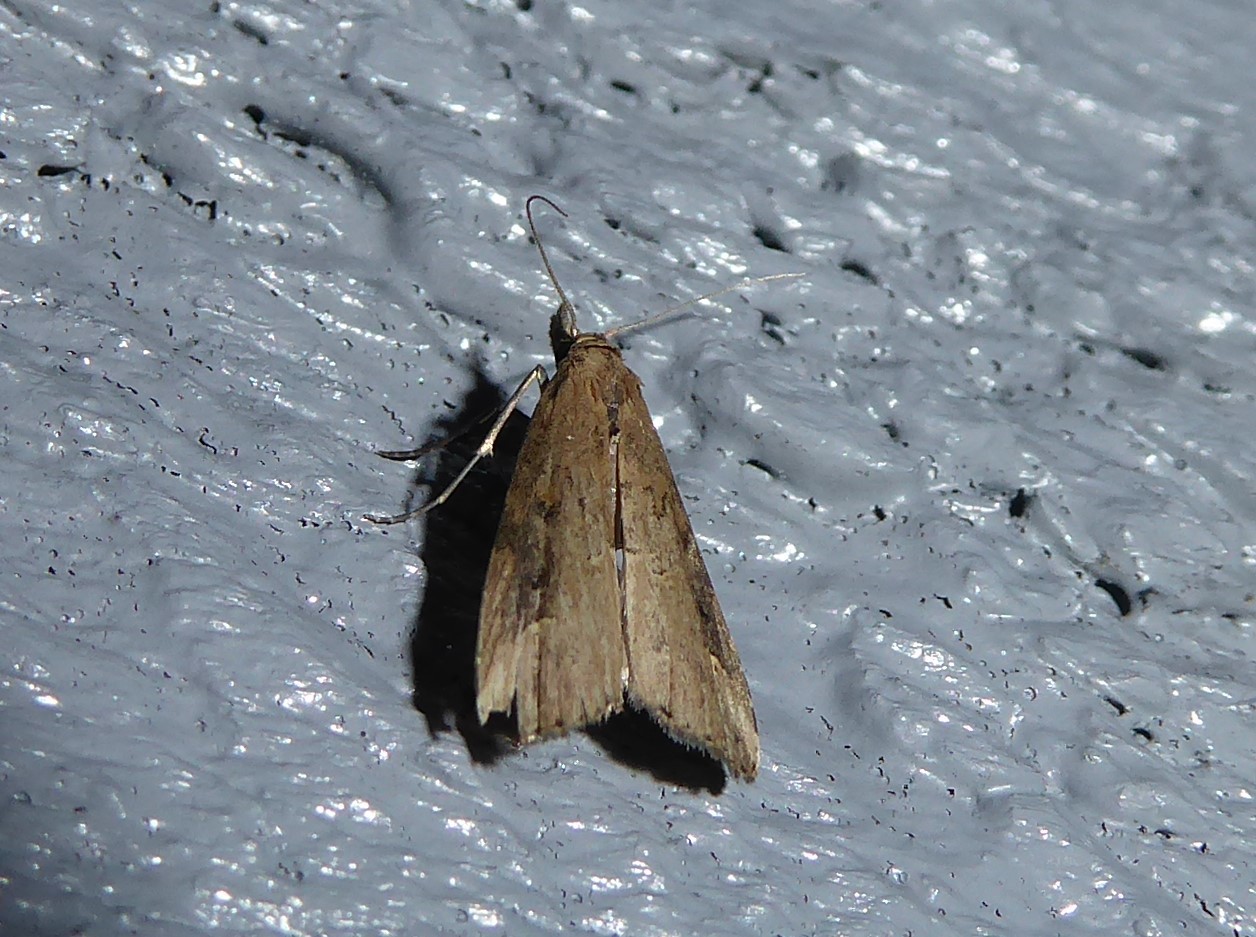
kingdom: Animalia
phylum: Arthropoda
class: Insecta
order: Lepidoptera
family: Erebidae
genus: Schrankia
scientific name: Schrankia costaestrigalis
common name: Pinion-streaked snout
